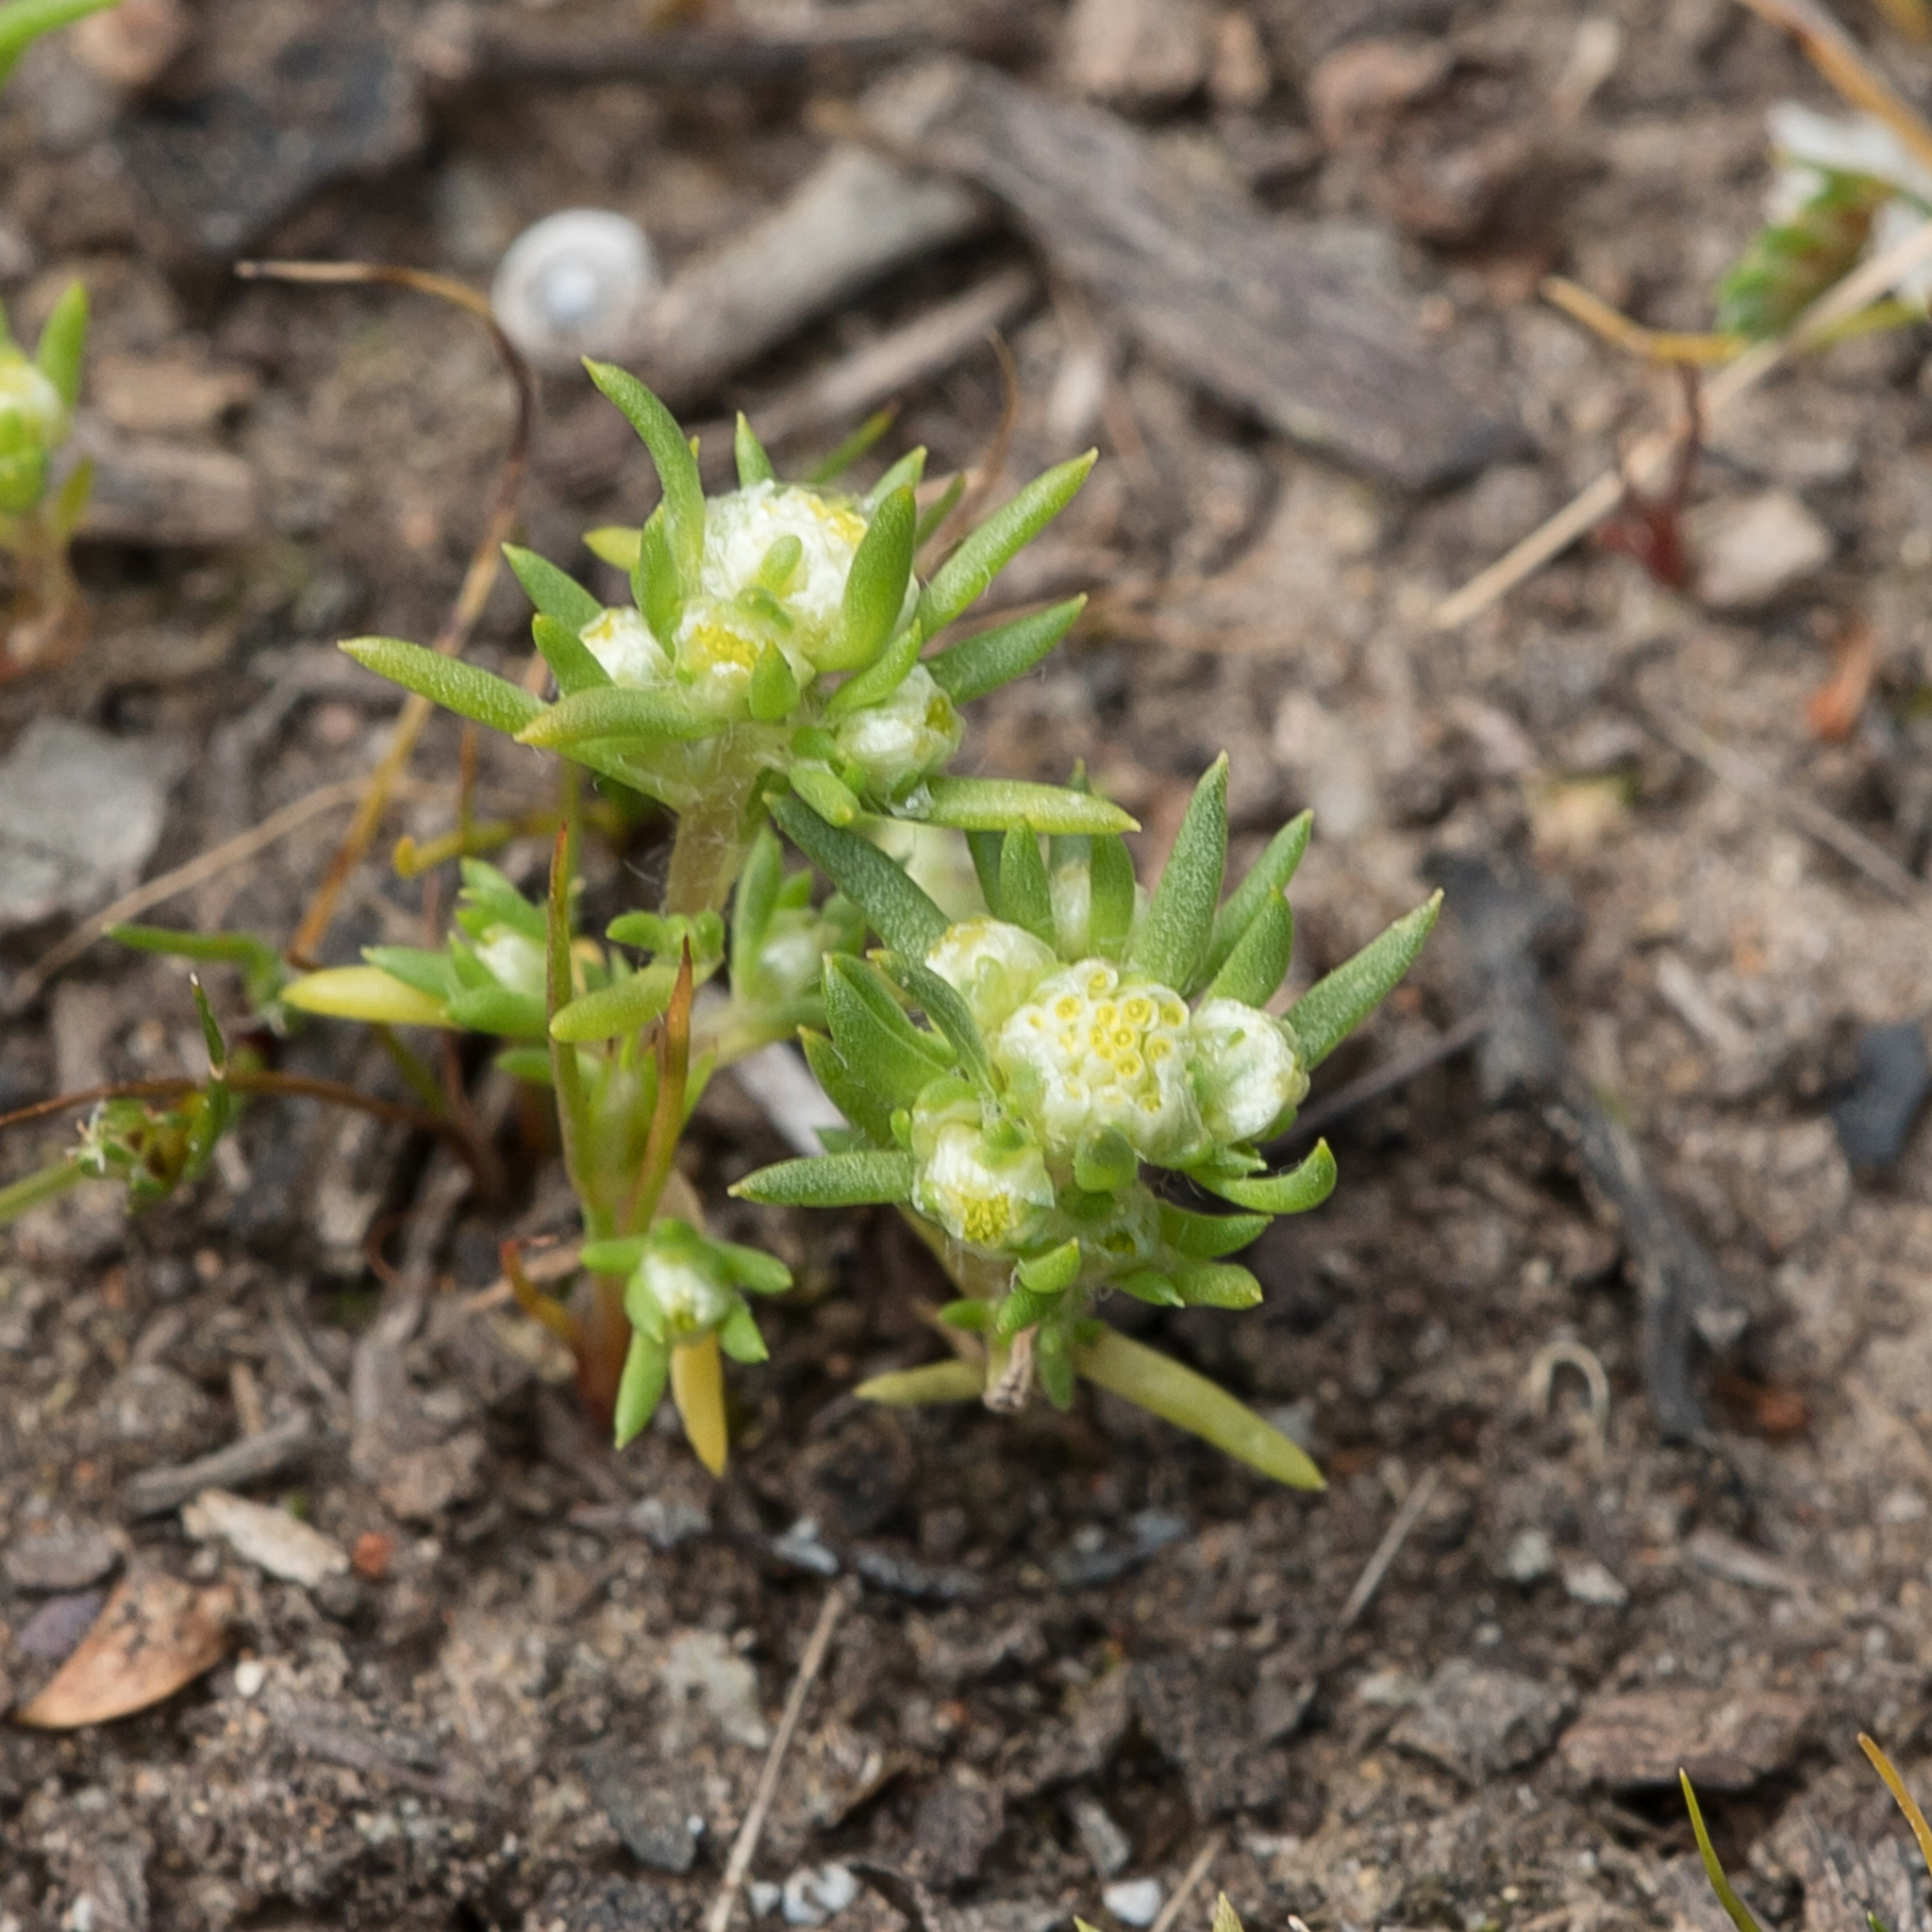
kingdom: Plantae
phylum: Tracheophyta
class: Magnoliopsida
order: Asterales
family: Asteraceae
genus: Siloxerus
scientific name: Siloxerus multiflorus
